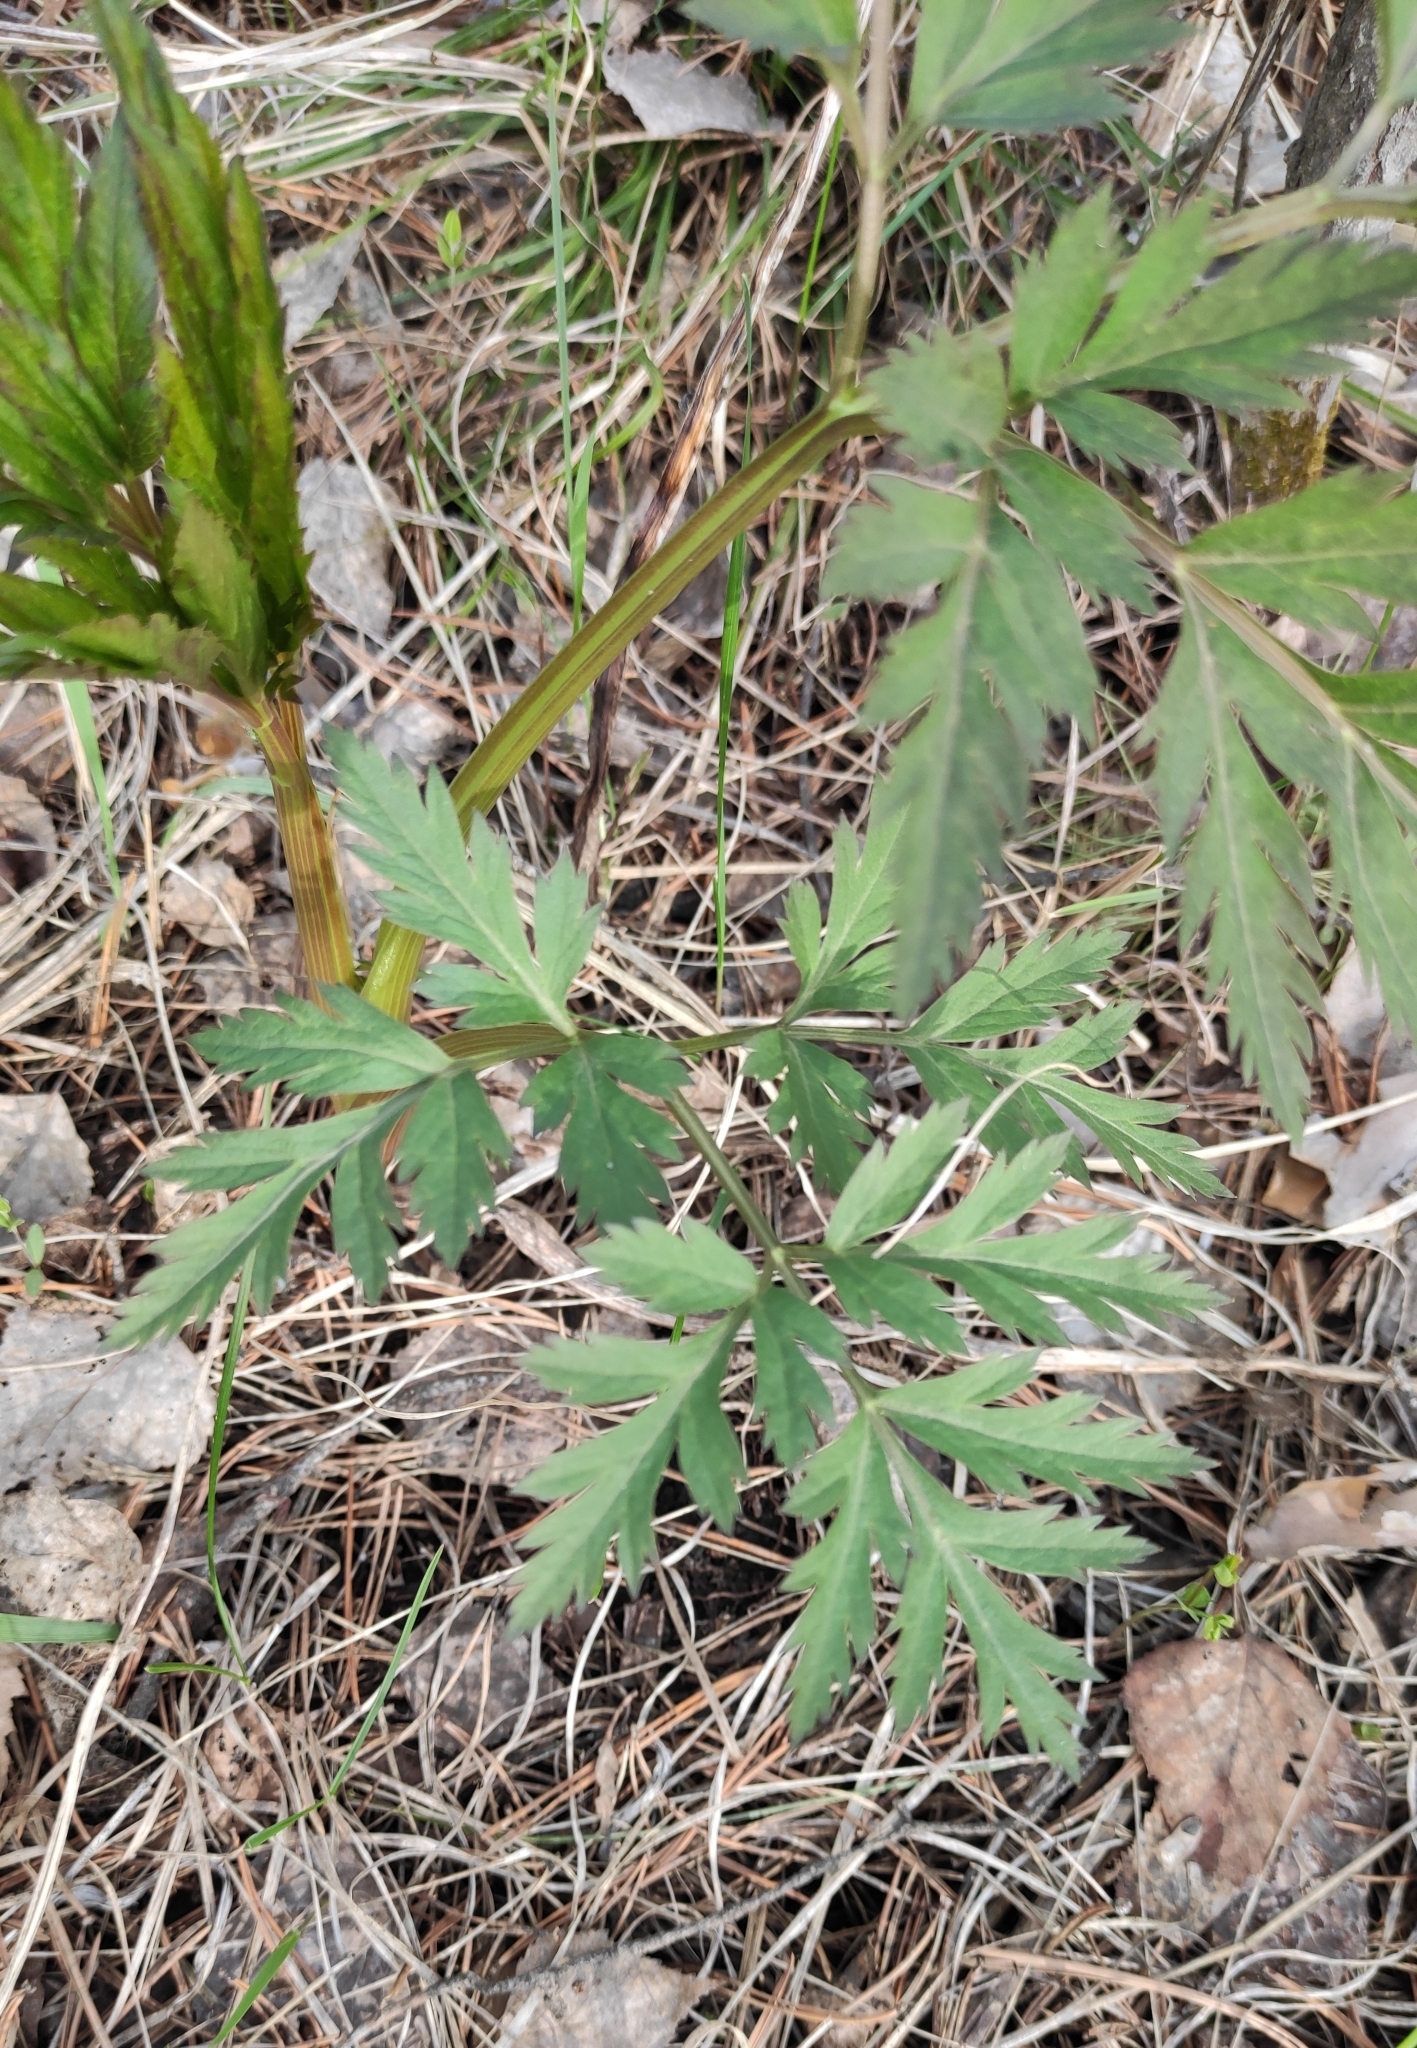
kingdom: Plantae
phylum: Tracheophyta
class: Magnoliopsida
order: Apiales
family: Apiaceae
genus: Pleurospermum
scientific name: Pleurospermum uralense
